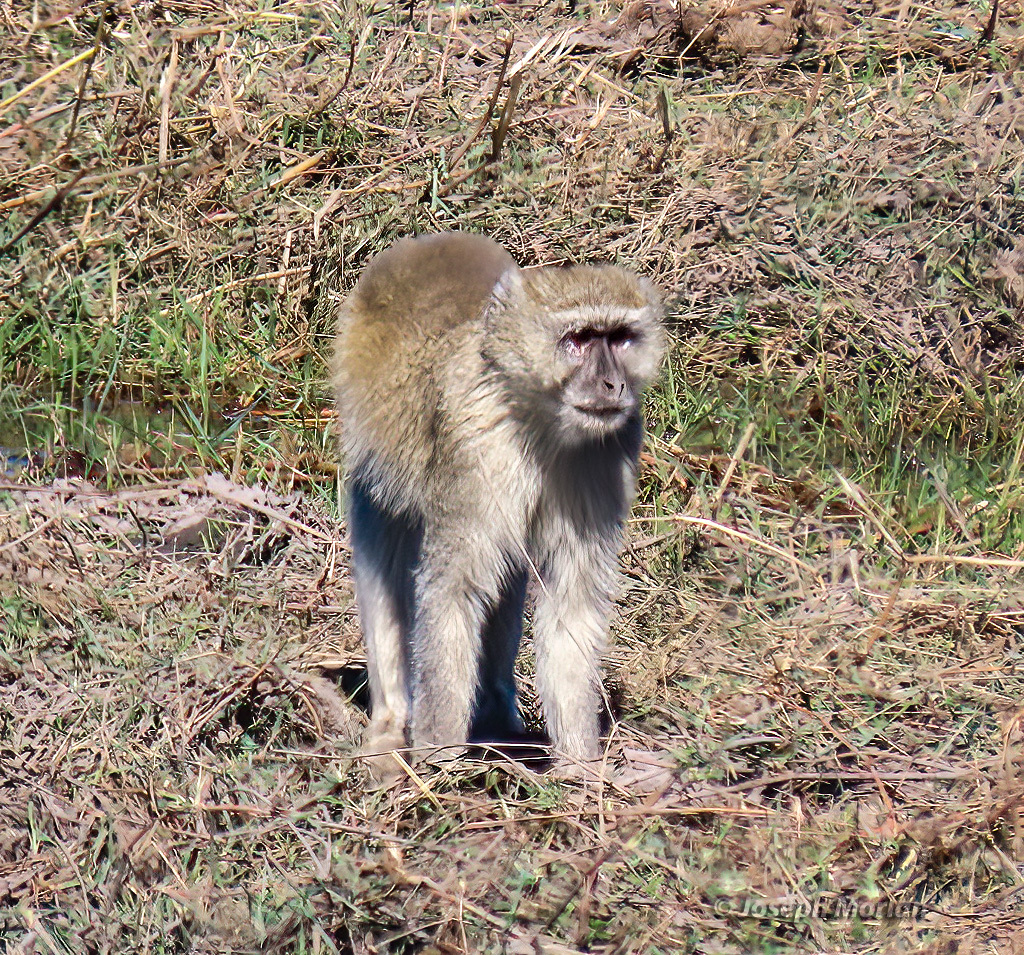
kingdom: Animalia
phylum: Chordata
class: Mammalia
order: Primates
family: Cercopithecidae
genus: Chlorocebus
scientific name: Chlorocebus cynosuros
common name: Malbrouck
